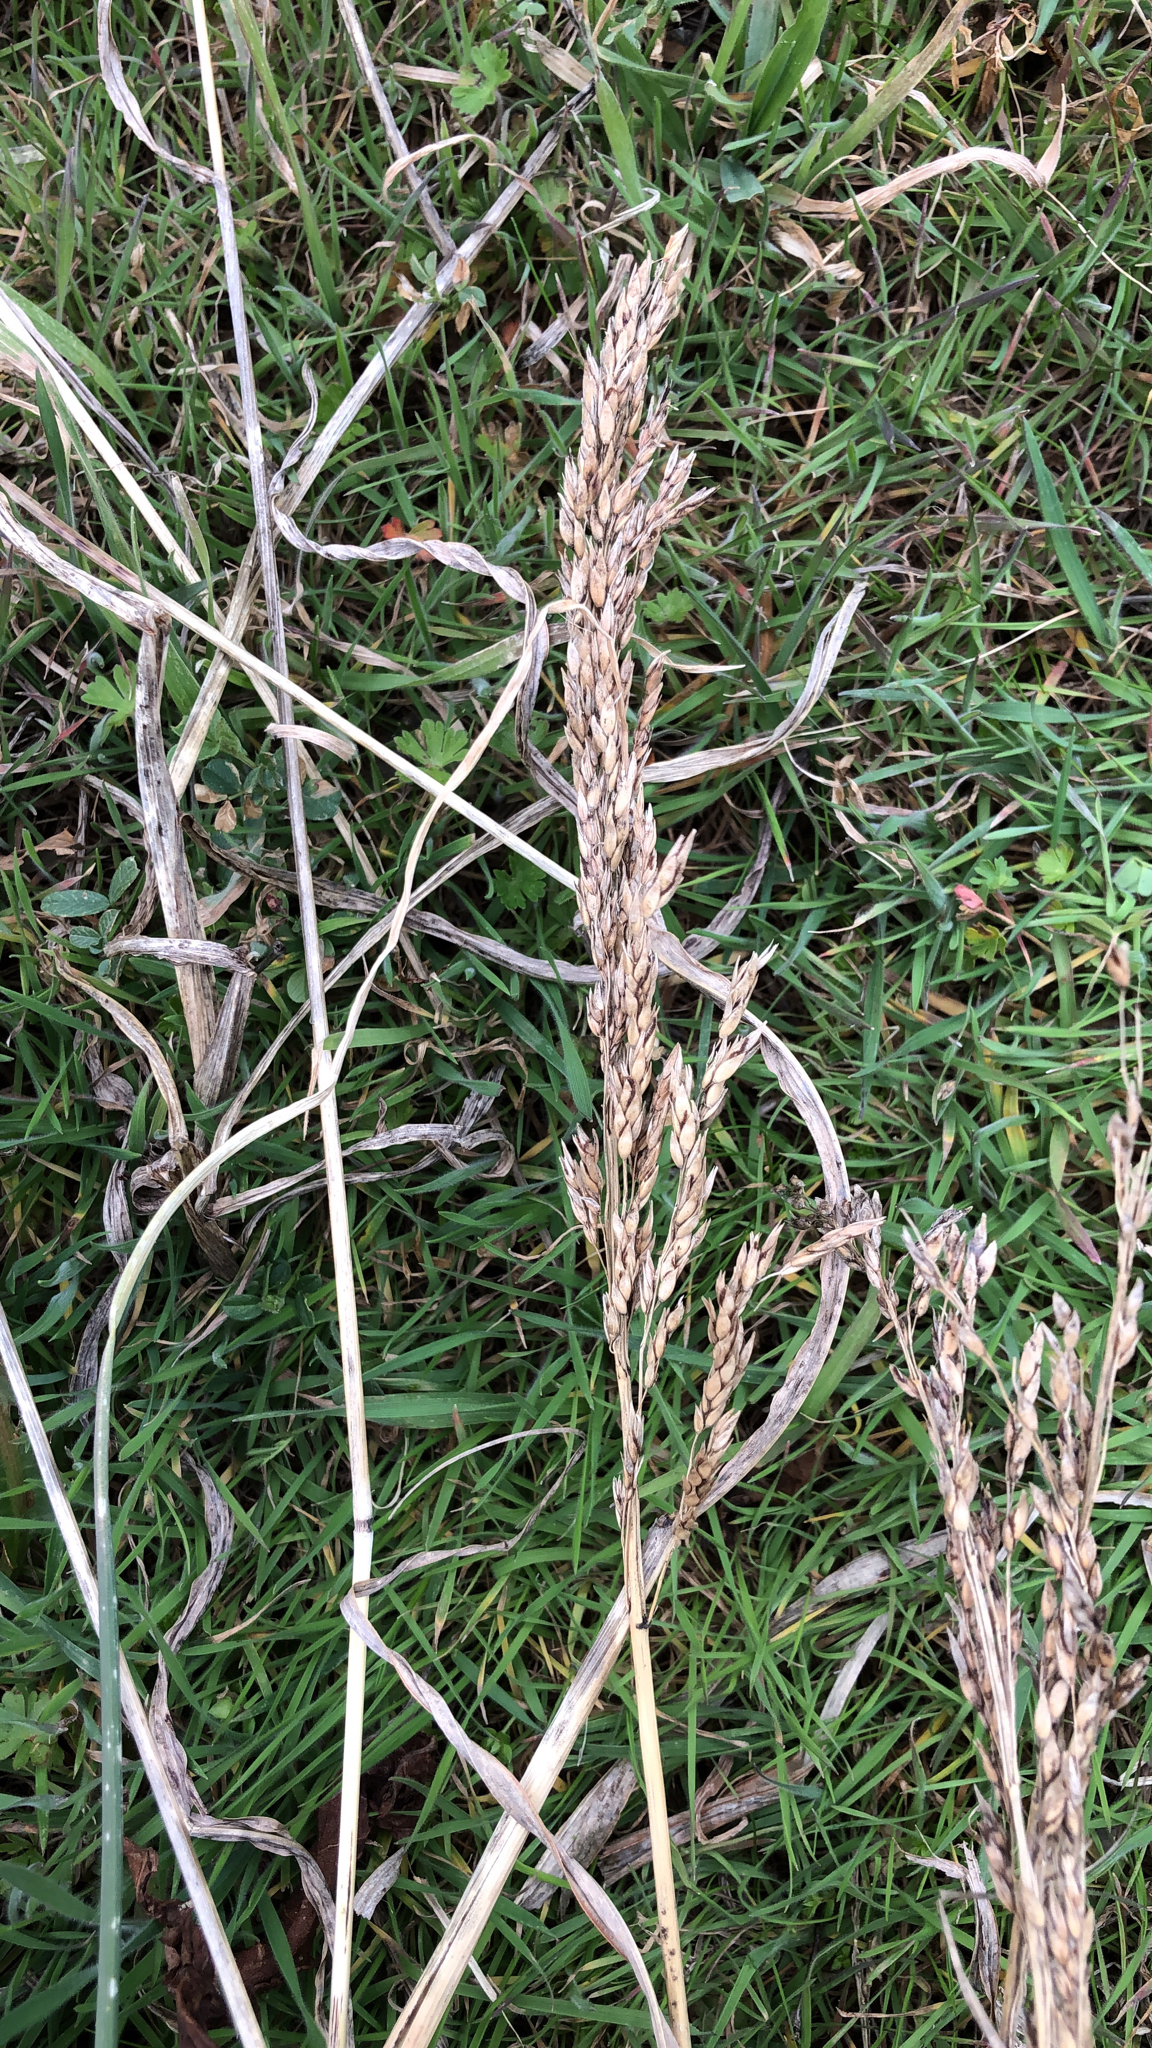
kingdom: Plantae
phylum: Tracheophyta
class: Liliopsida
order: Poales
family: Poaceae
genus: Sorghum
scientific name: Sorghum halepense
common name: Johnson-grass
